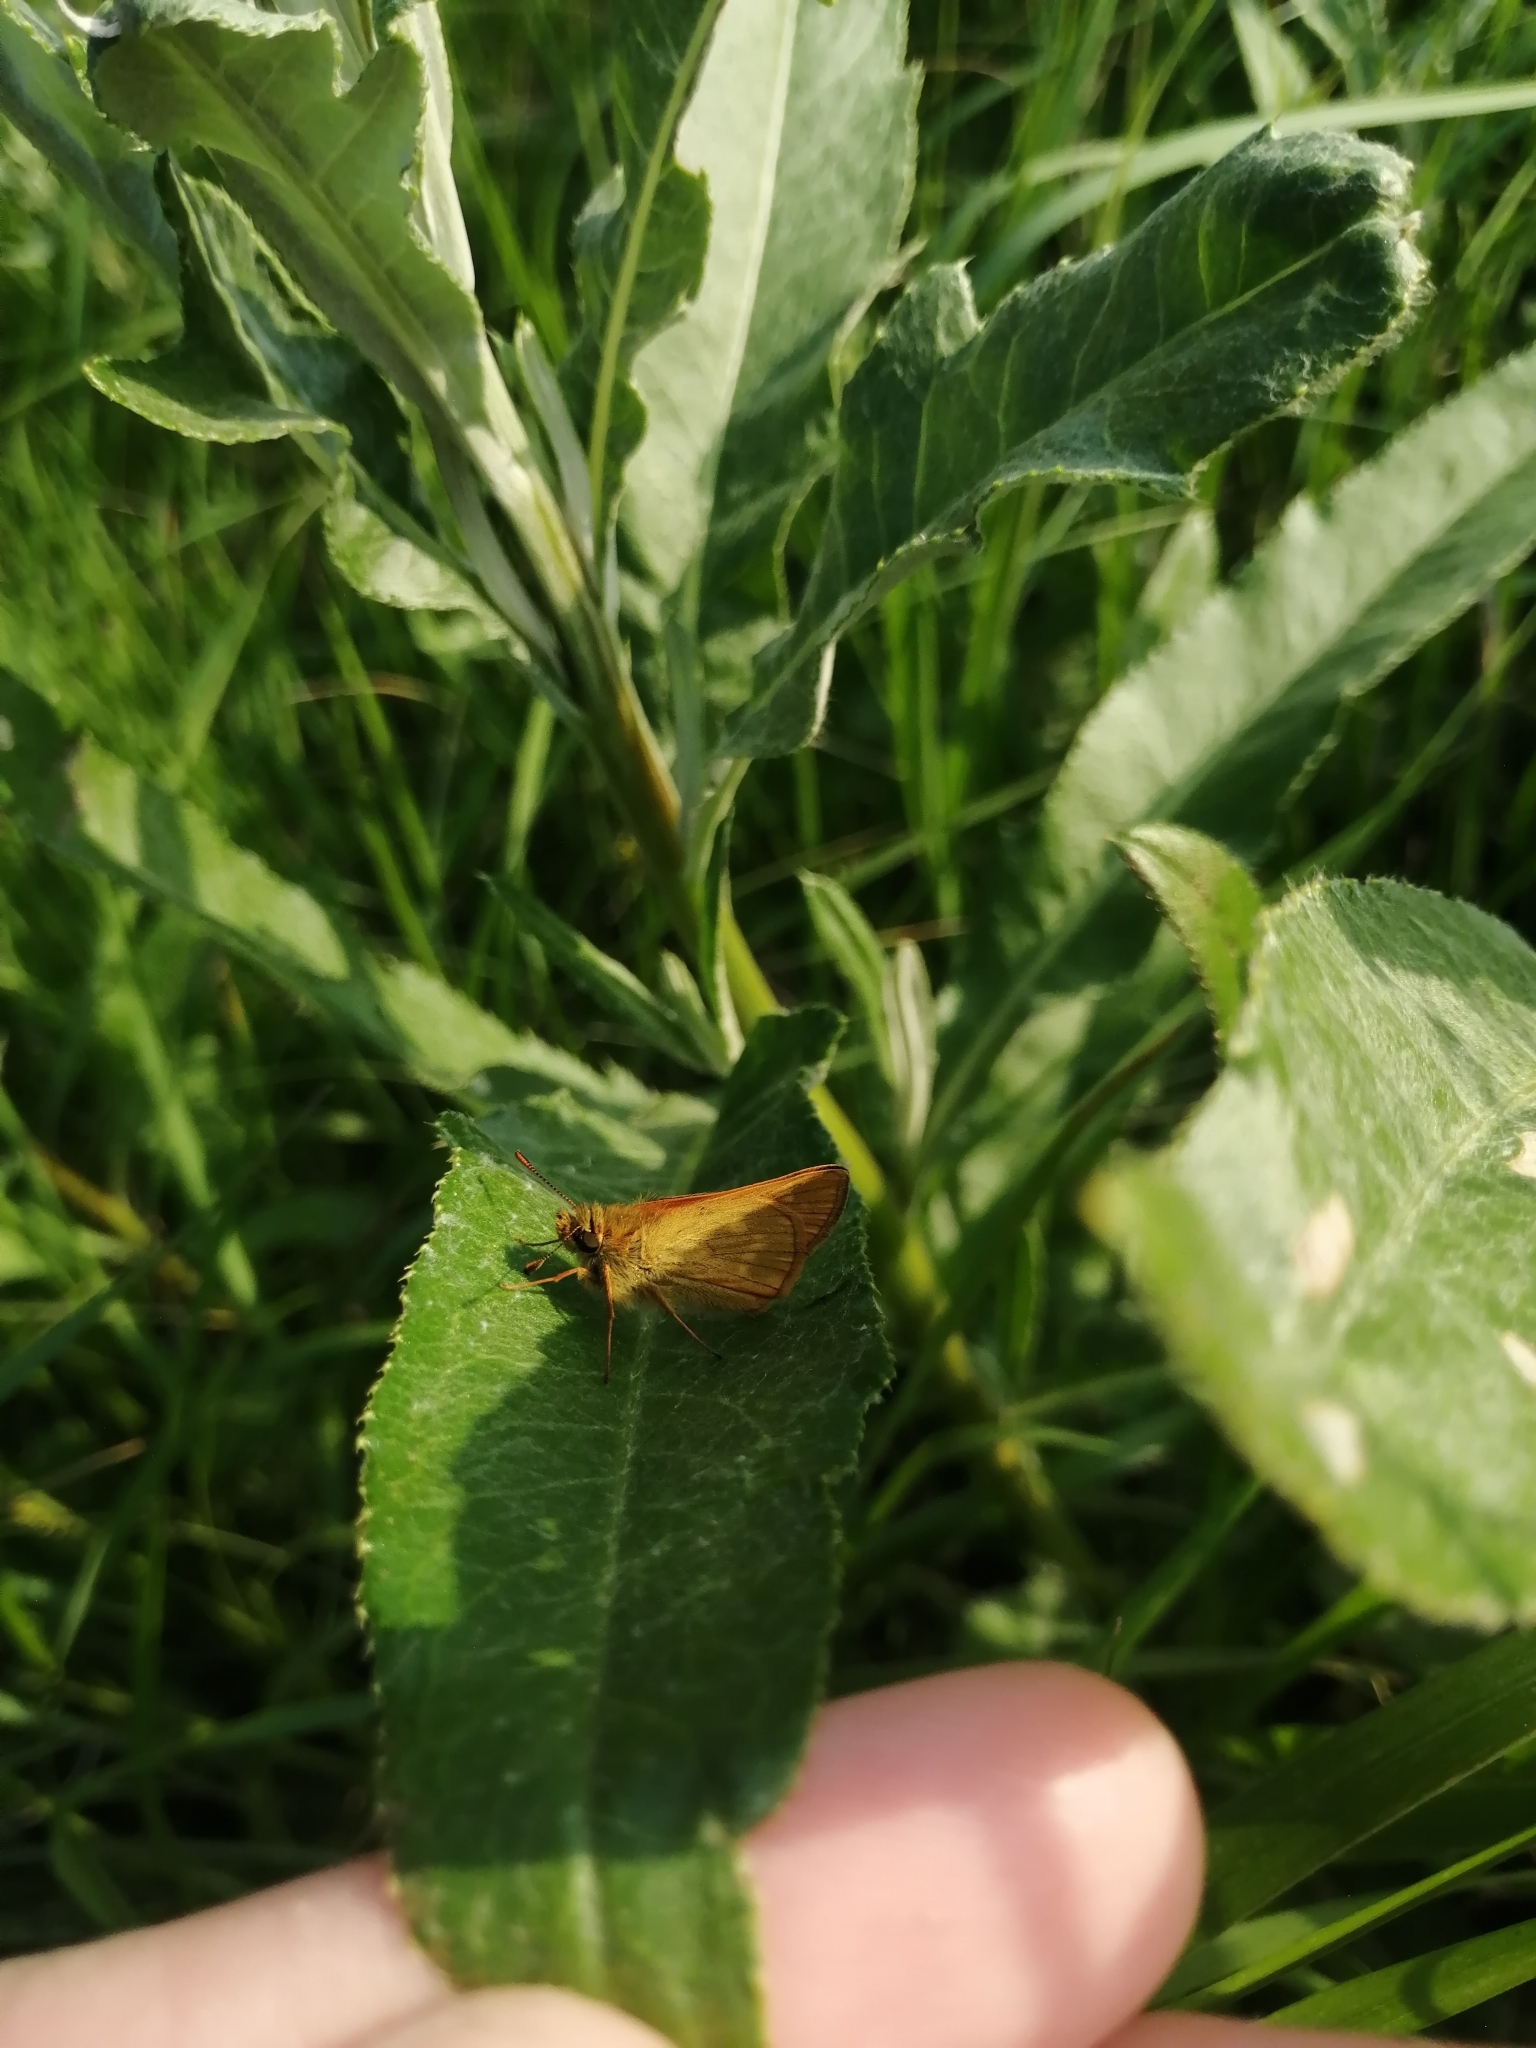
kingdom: Animalia
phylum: Arthropoda
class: Insecta
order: Lepidoptera
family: Hesperiidae
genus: Ochlodes
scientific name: Ochlodes venata
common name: Large skipper
